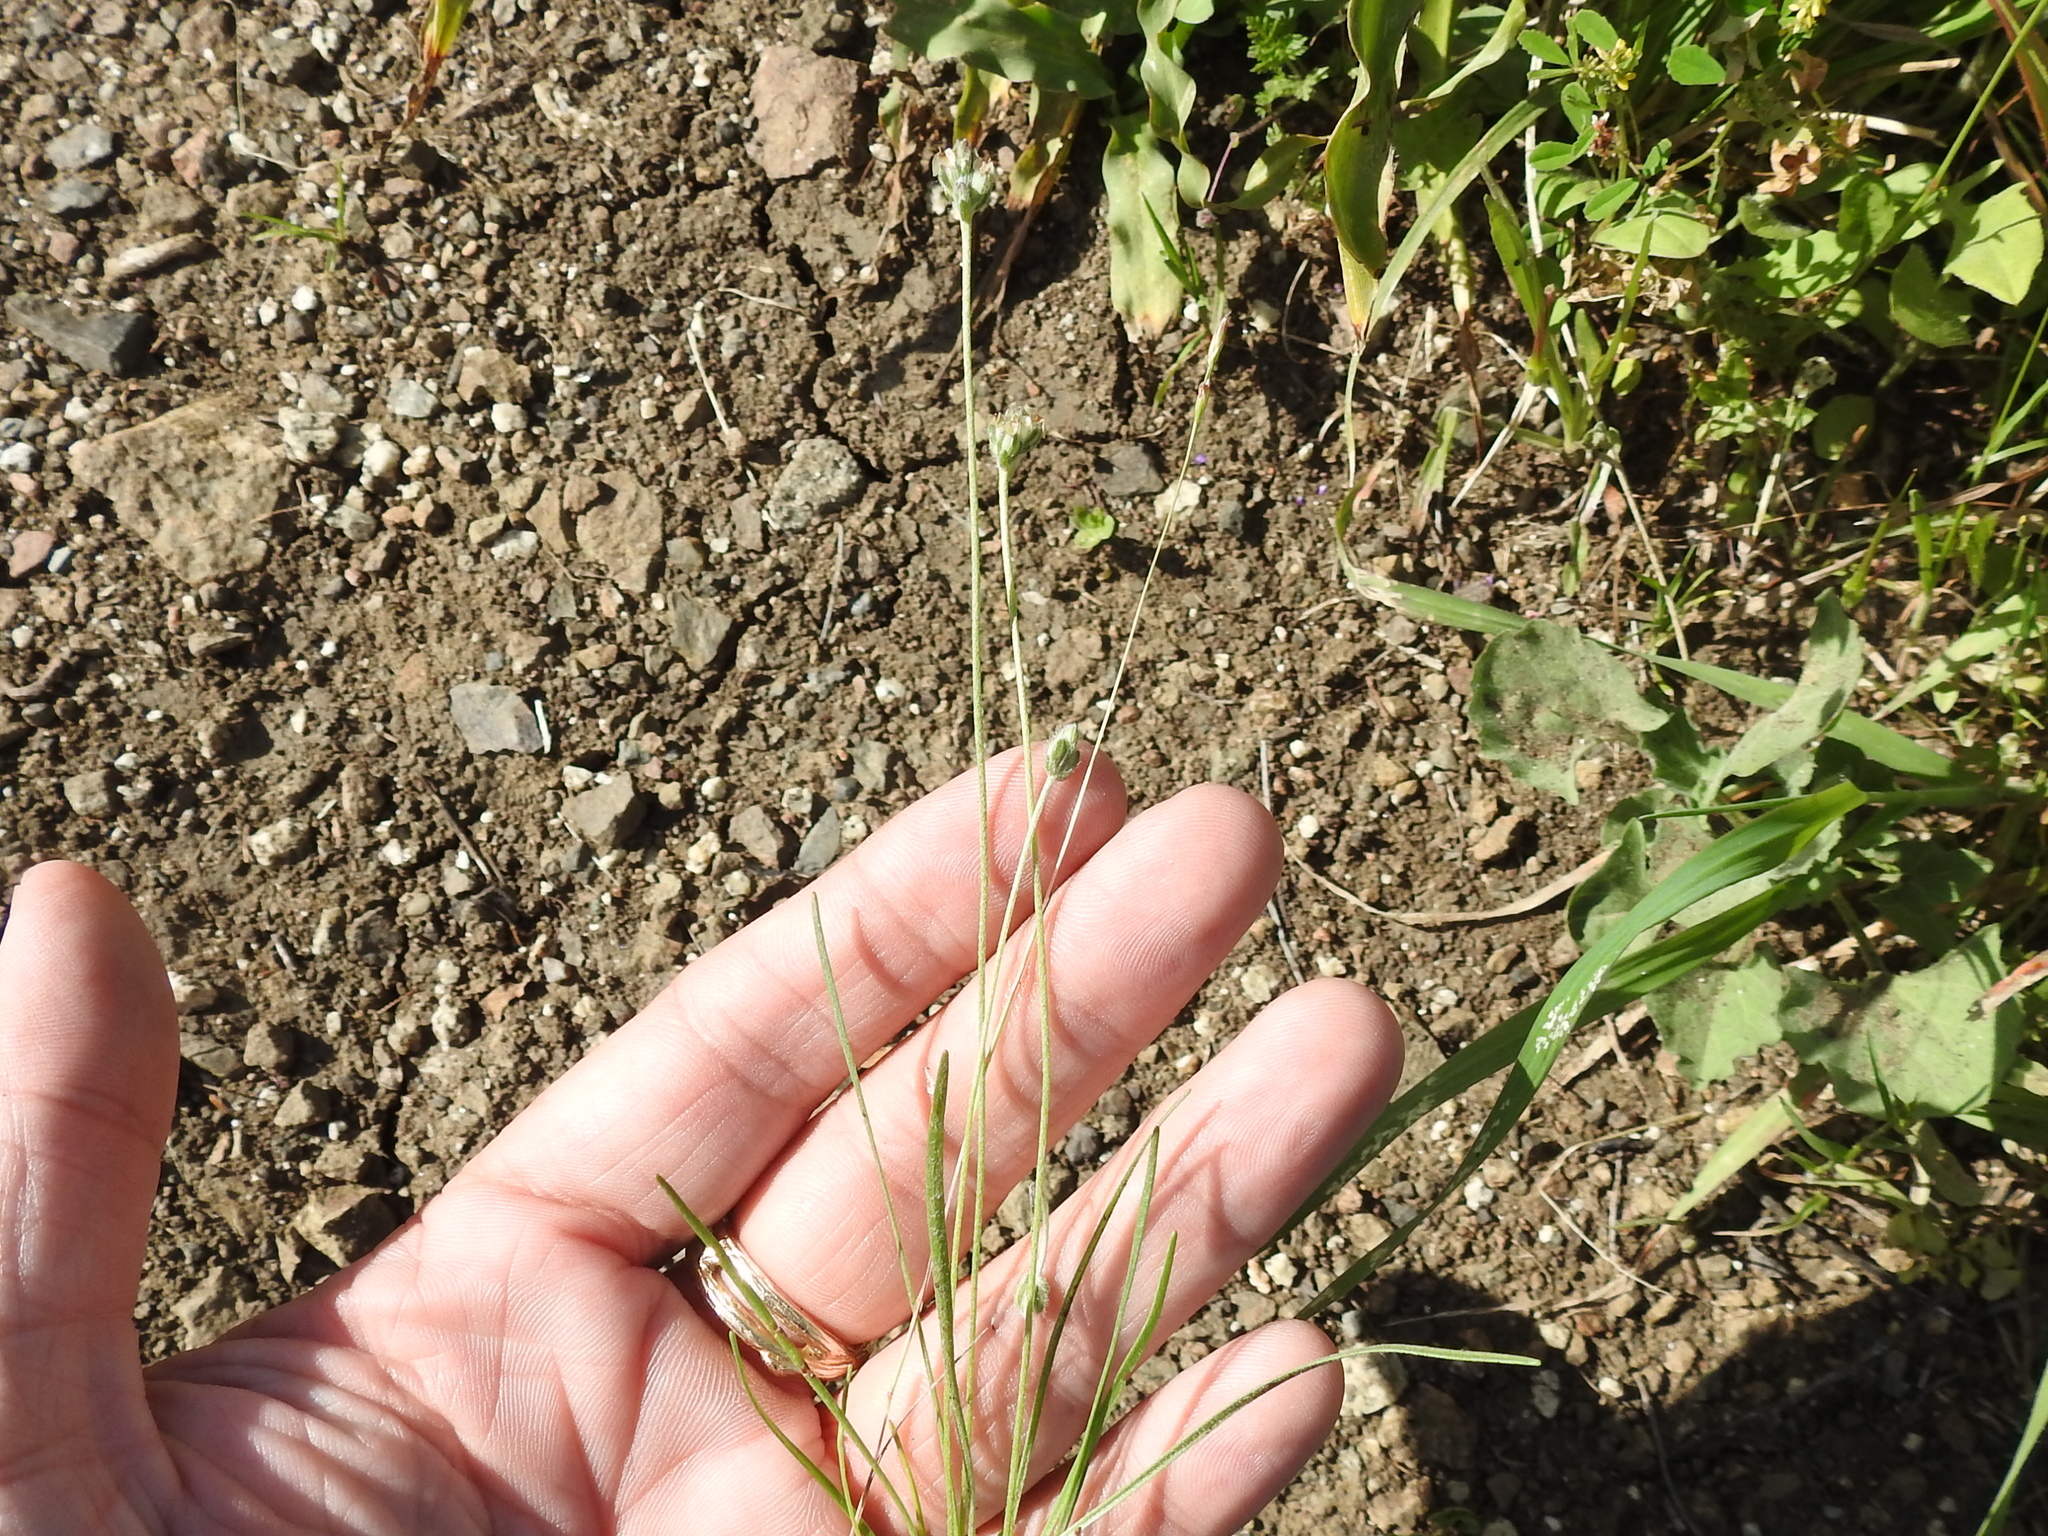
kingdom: Plantae
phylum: Tracheophyta
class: Magnoliopsida
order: Lamiales
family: Plantaginaceae
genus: Plantago
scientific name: Plantago erecta
